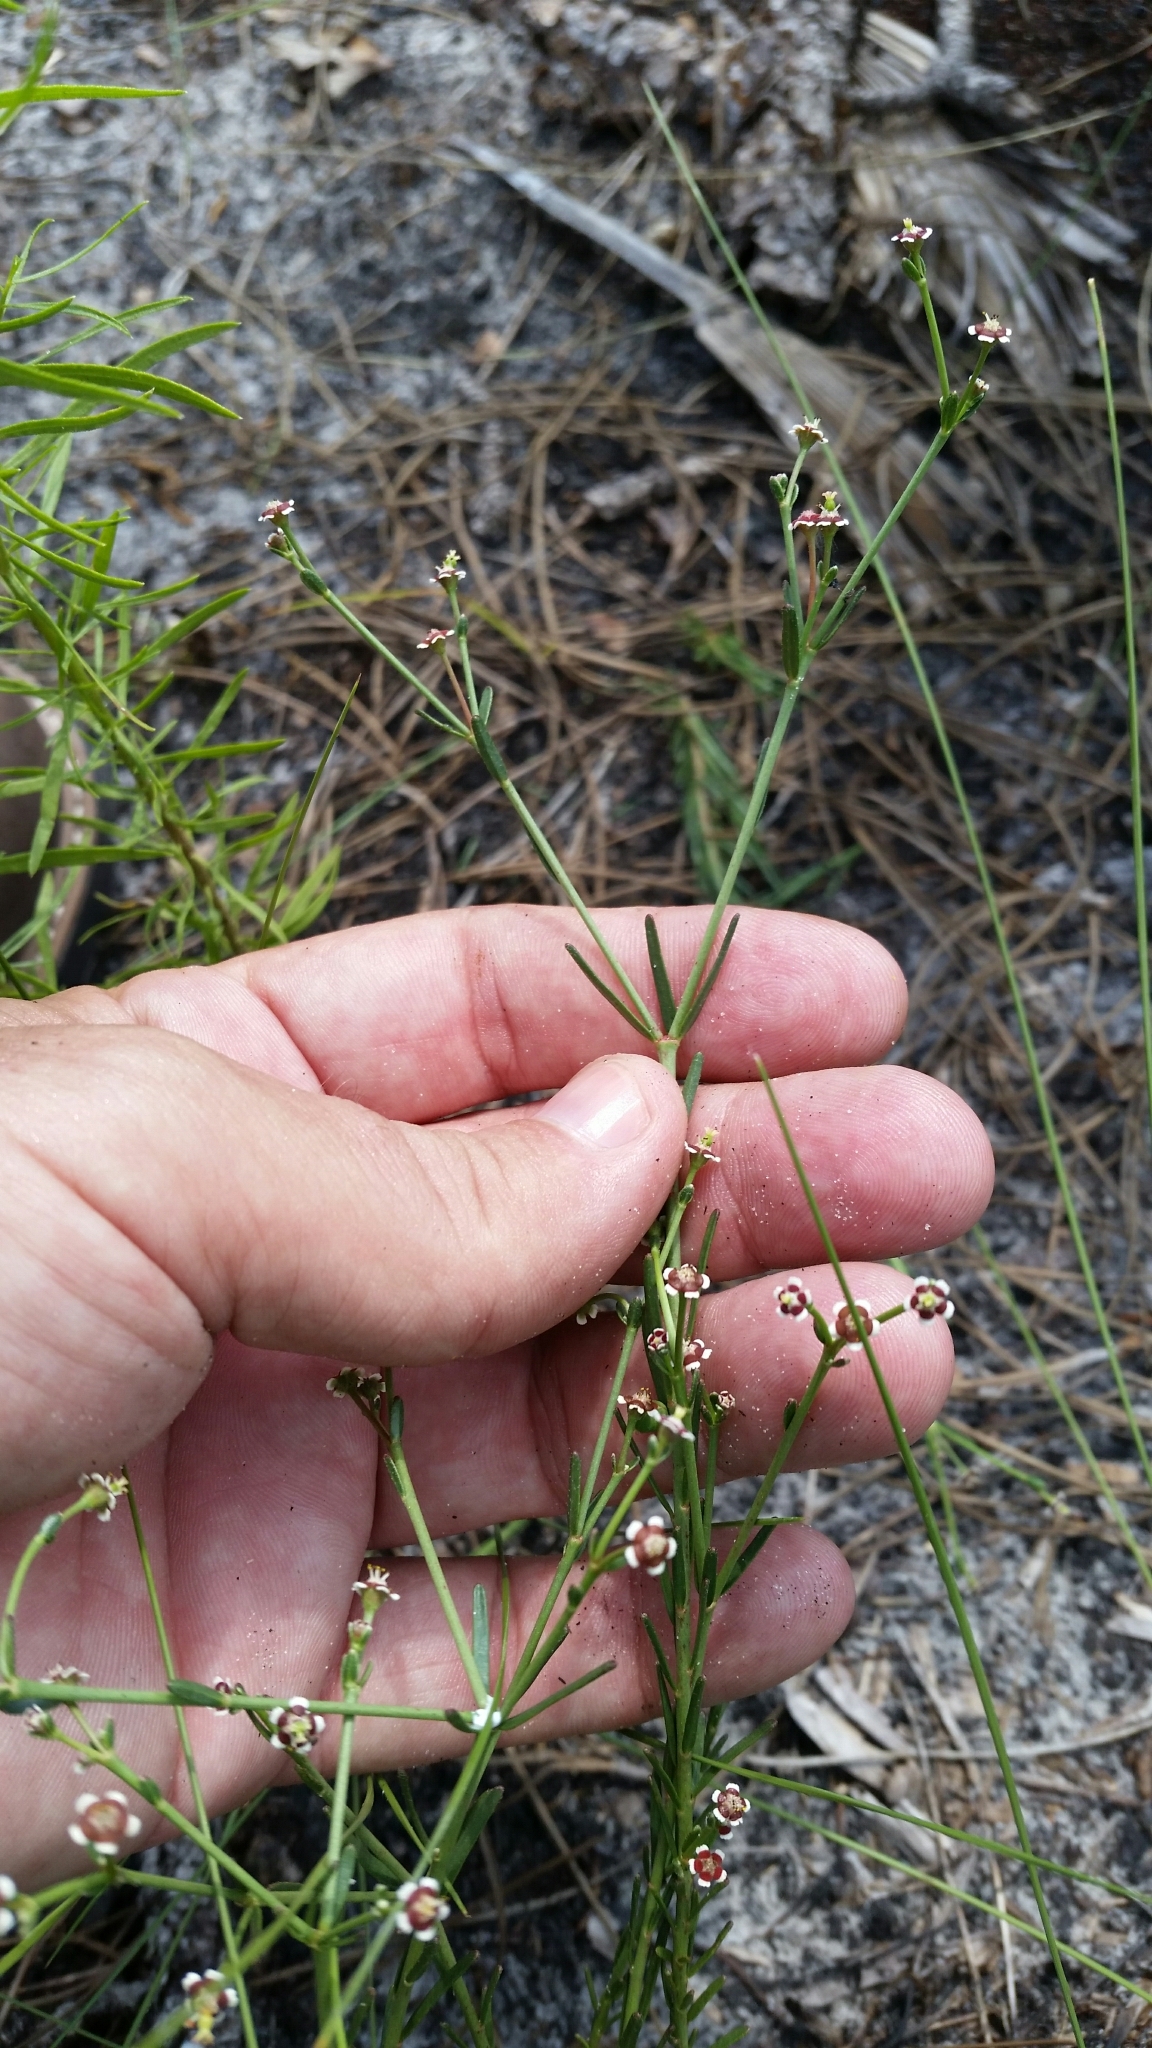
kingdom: Plantae
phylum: Tracheophyta
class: Magnoliopsida
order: Malpighiales
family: Euphorbiaceae
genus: Euphorbia
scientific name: Euphorbia polyphylla
